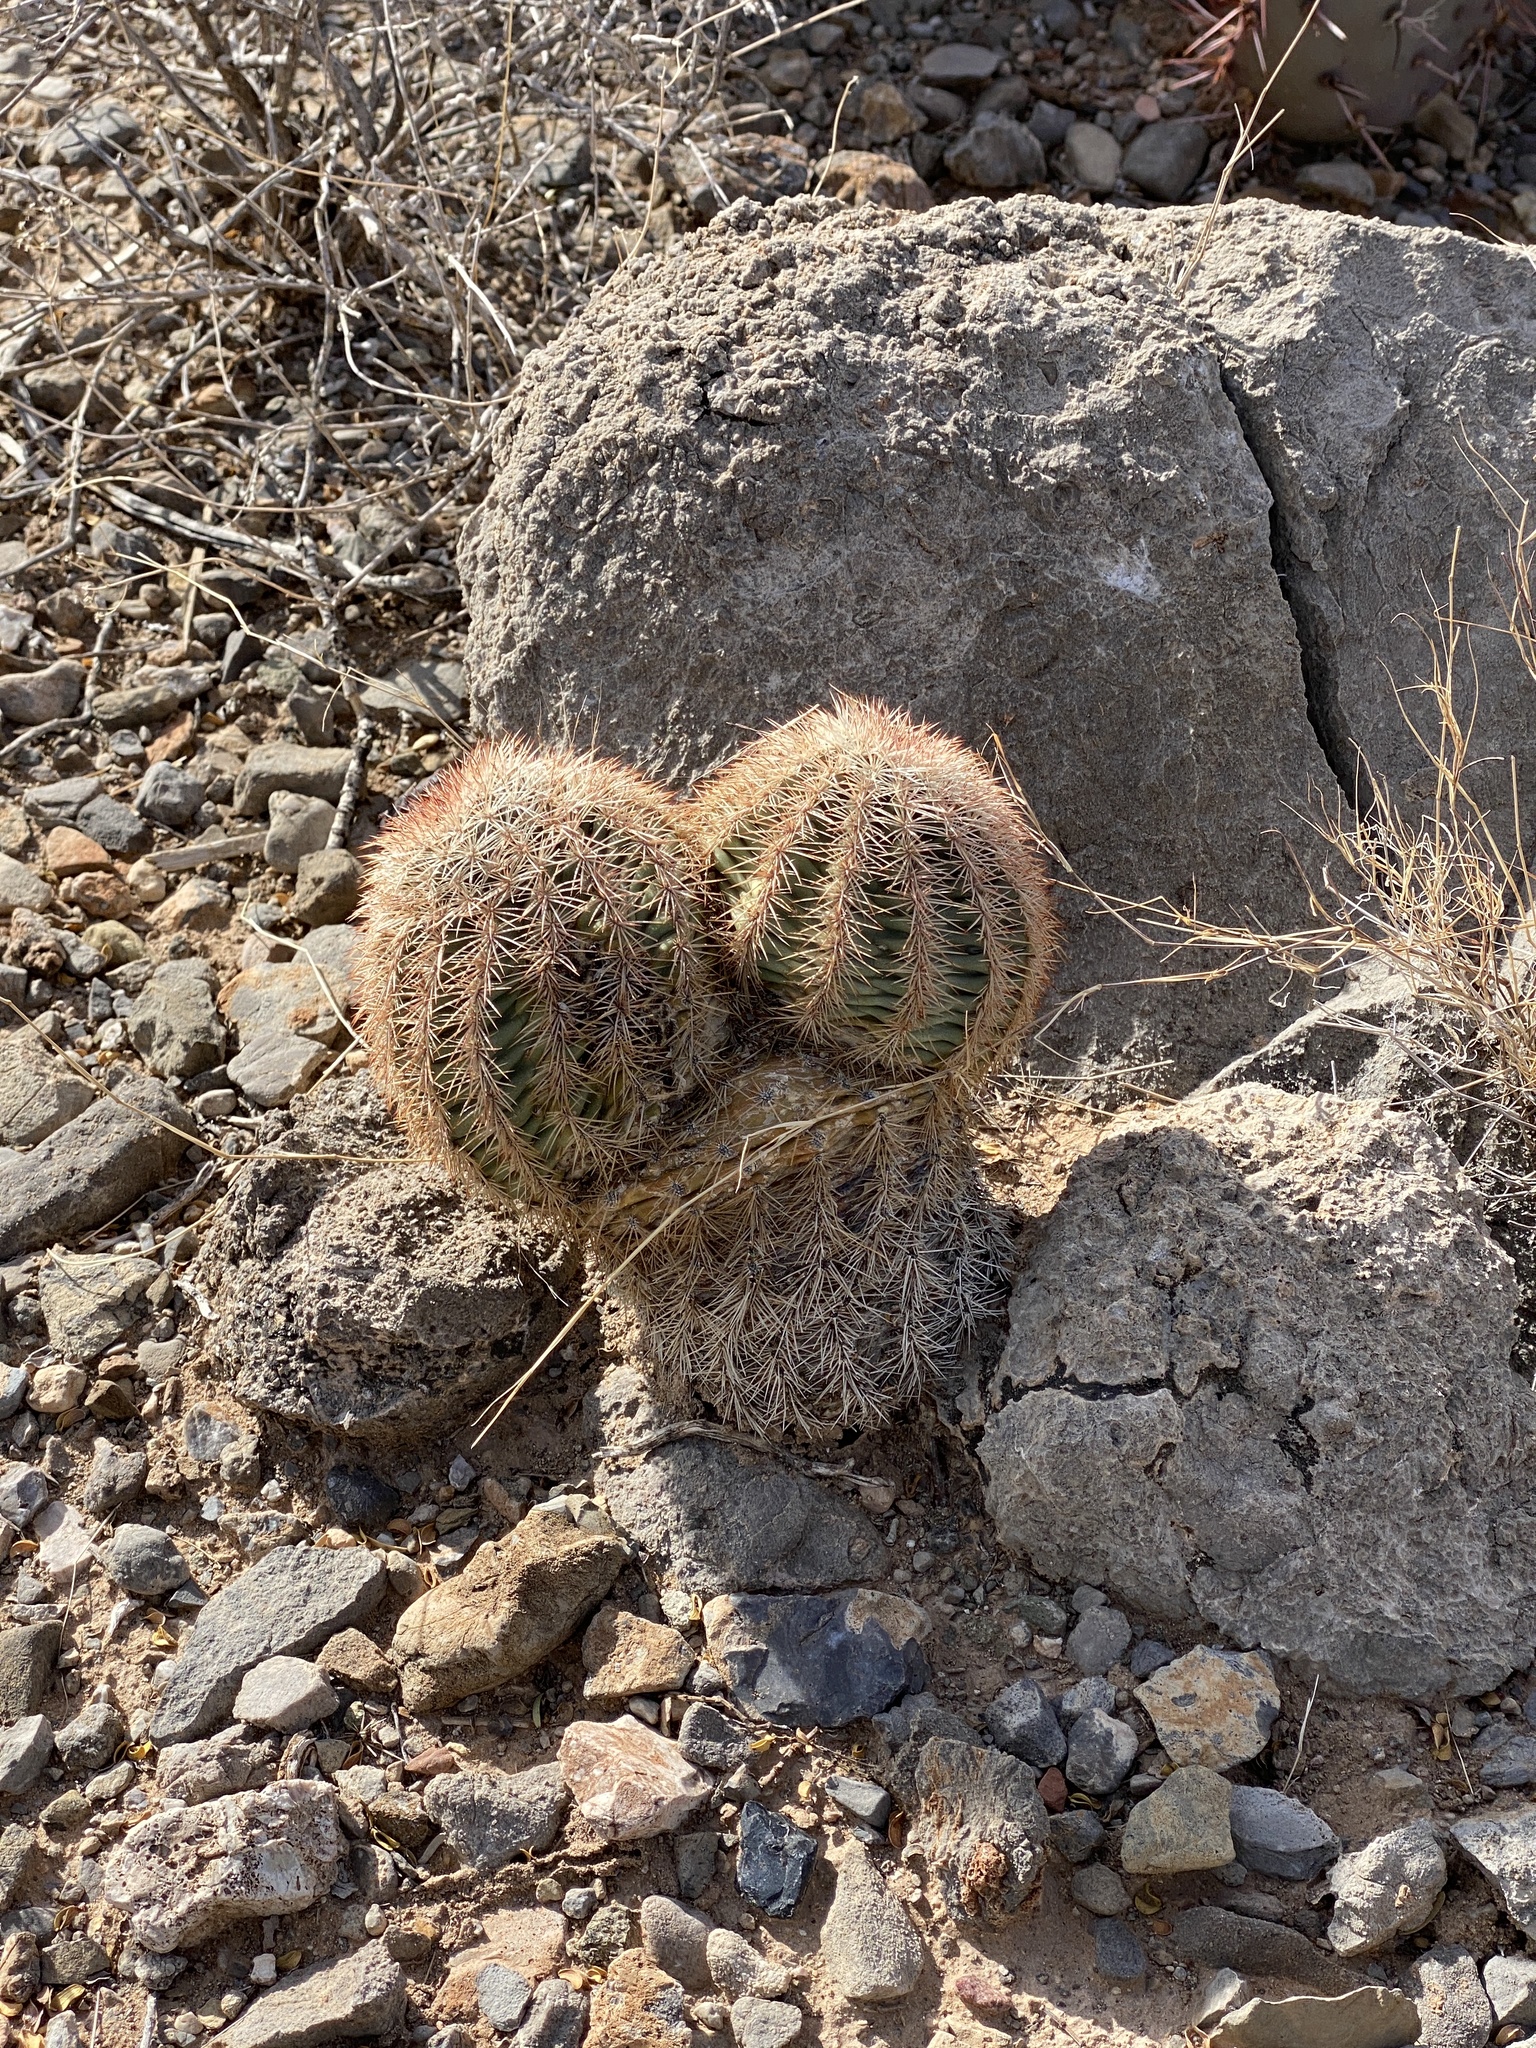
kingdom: Plantae
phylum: Tracheophyta
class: Magnoliopsida
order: Caryophyllales
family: Cactaceae
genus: Echinocereus
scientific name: Echinocereus dasyacanthus
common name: Spiny hedgehog cactus
